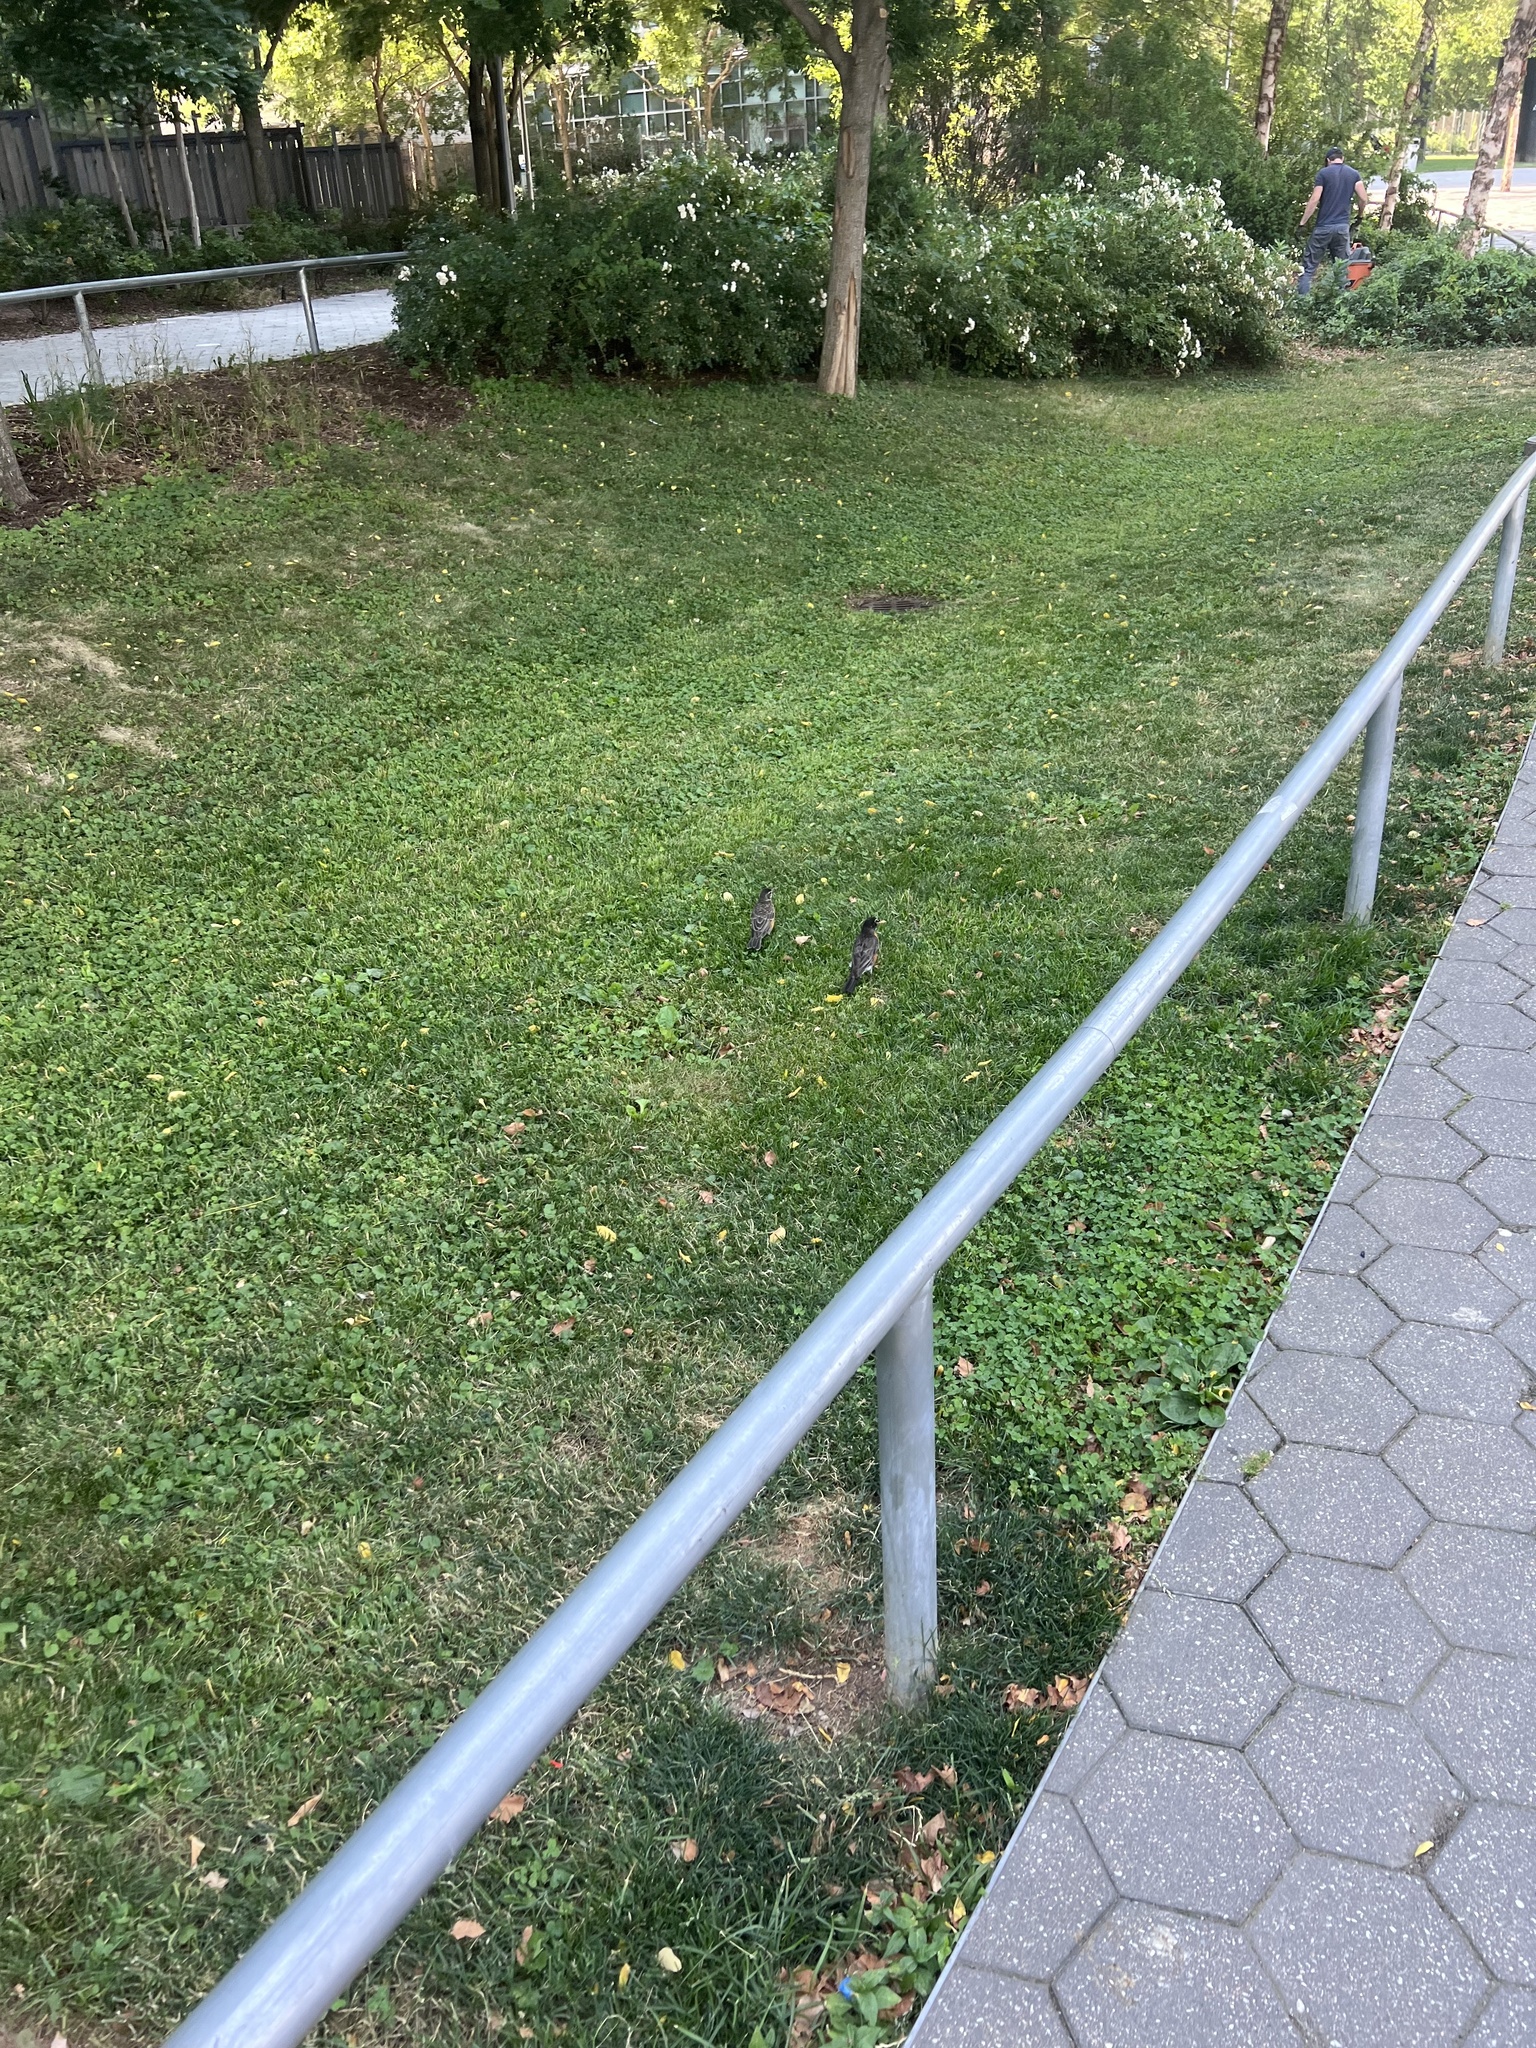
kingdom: Animalia
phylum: Chordata
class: Aves
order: Passeriformes
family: Turdidae
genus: Turdus
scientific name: Turdus migratorius
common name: American robin
